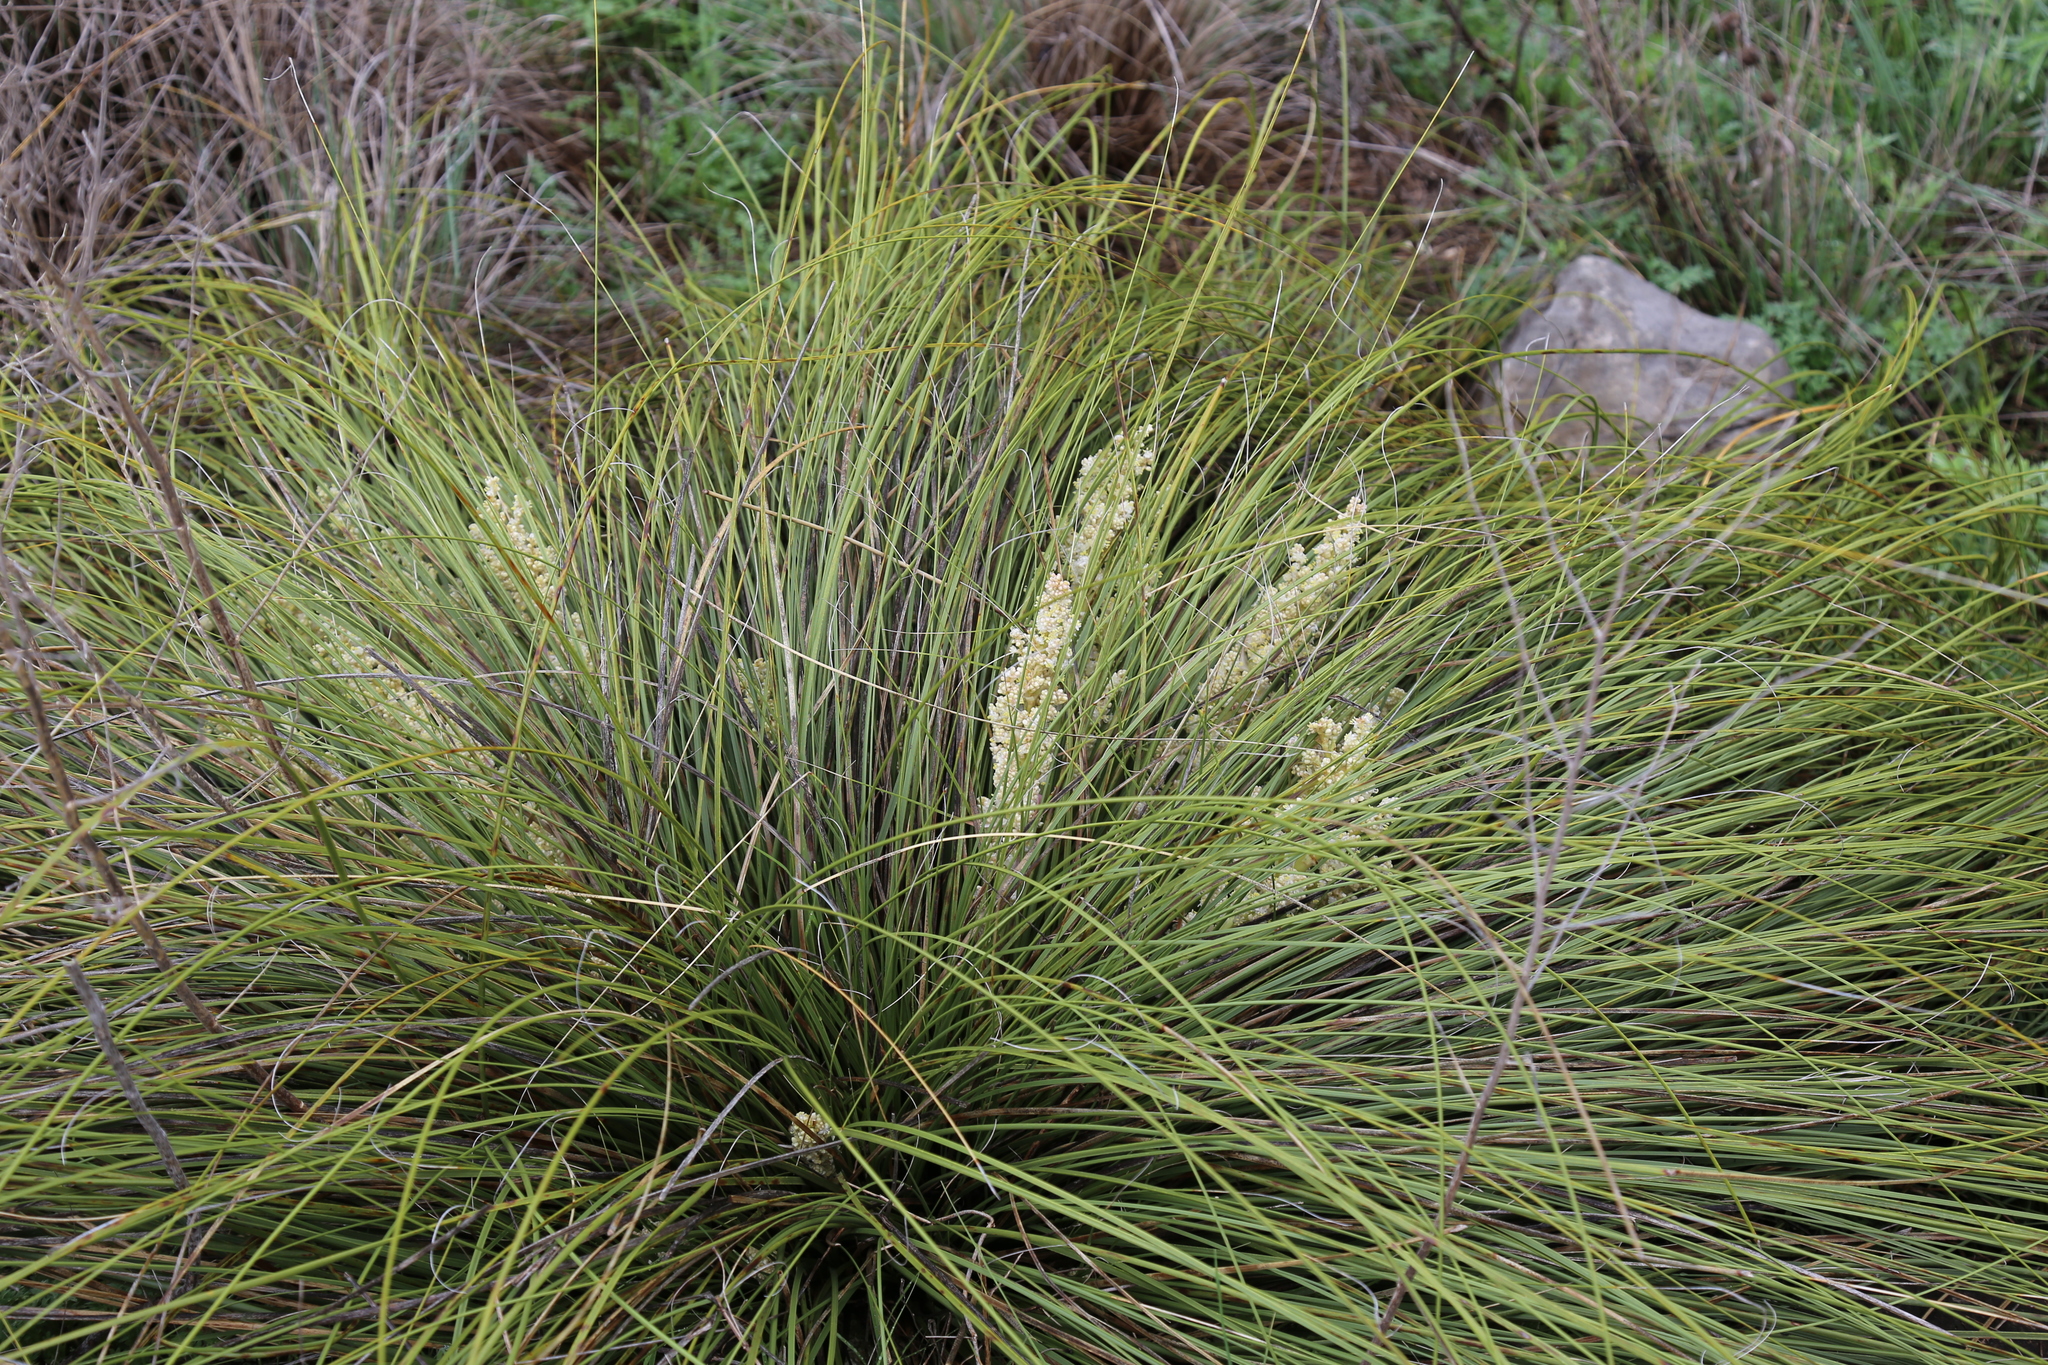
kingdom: Plantae
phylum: Tracheophyta
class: Liliopsida
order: Asparagales
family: Asparagaceae
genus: Nolina
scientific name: Nolina texana
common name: Texas sacahuiste
